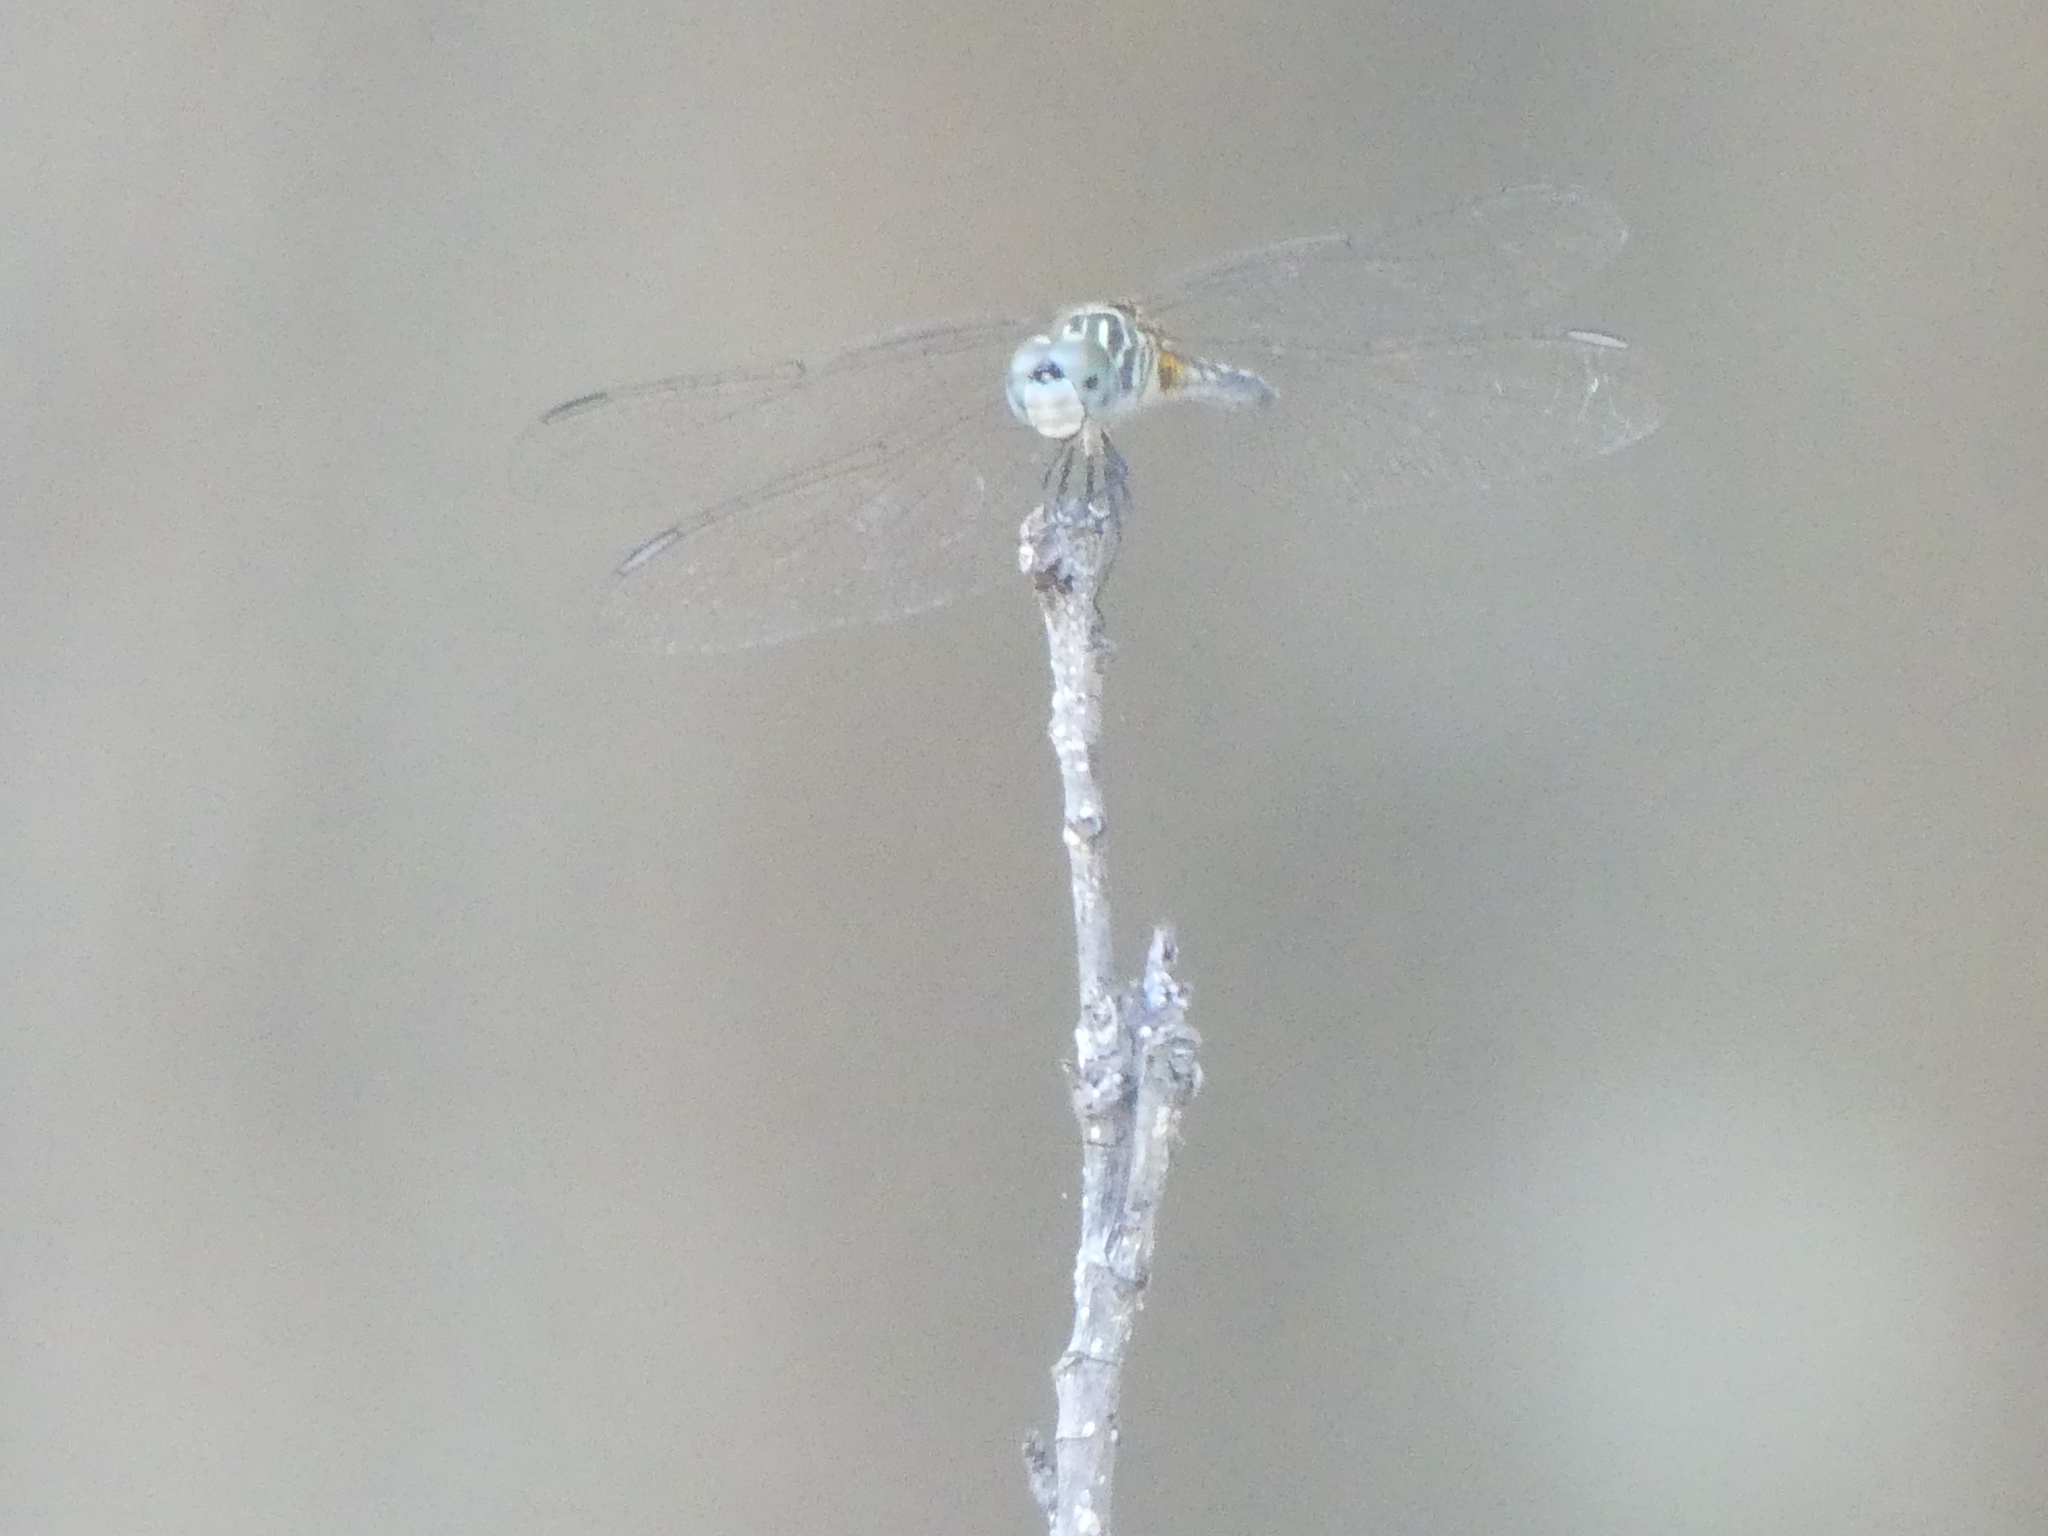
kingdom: Animalia
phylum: Arthropoda
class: Insecta
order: Odonata
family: Libellulidae
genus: Pachydiplax
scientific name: Pachydiplax longipennis
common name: Blue dasher
